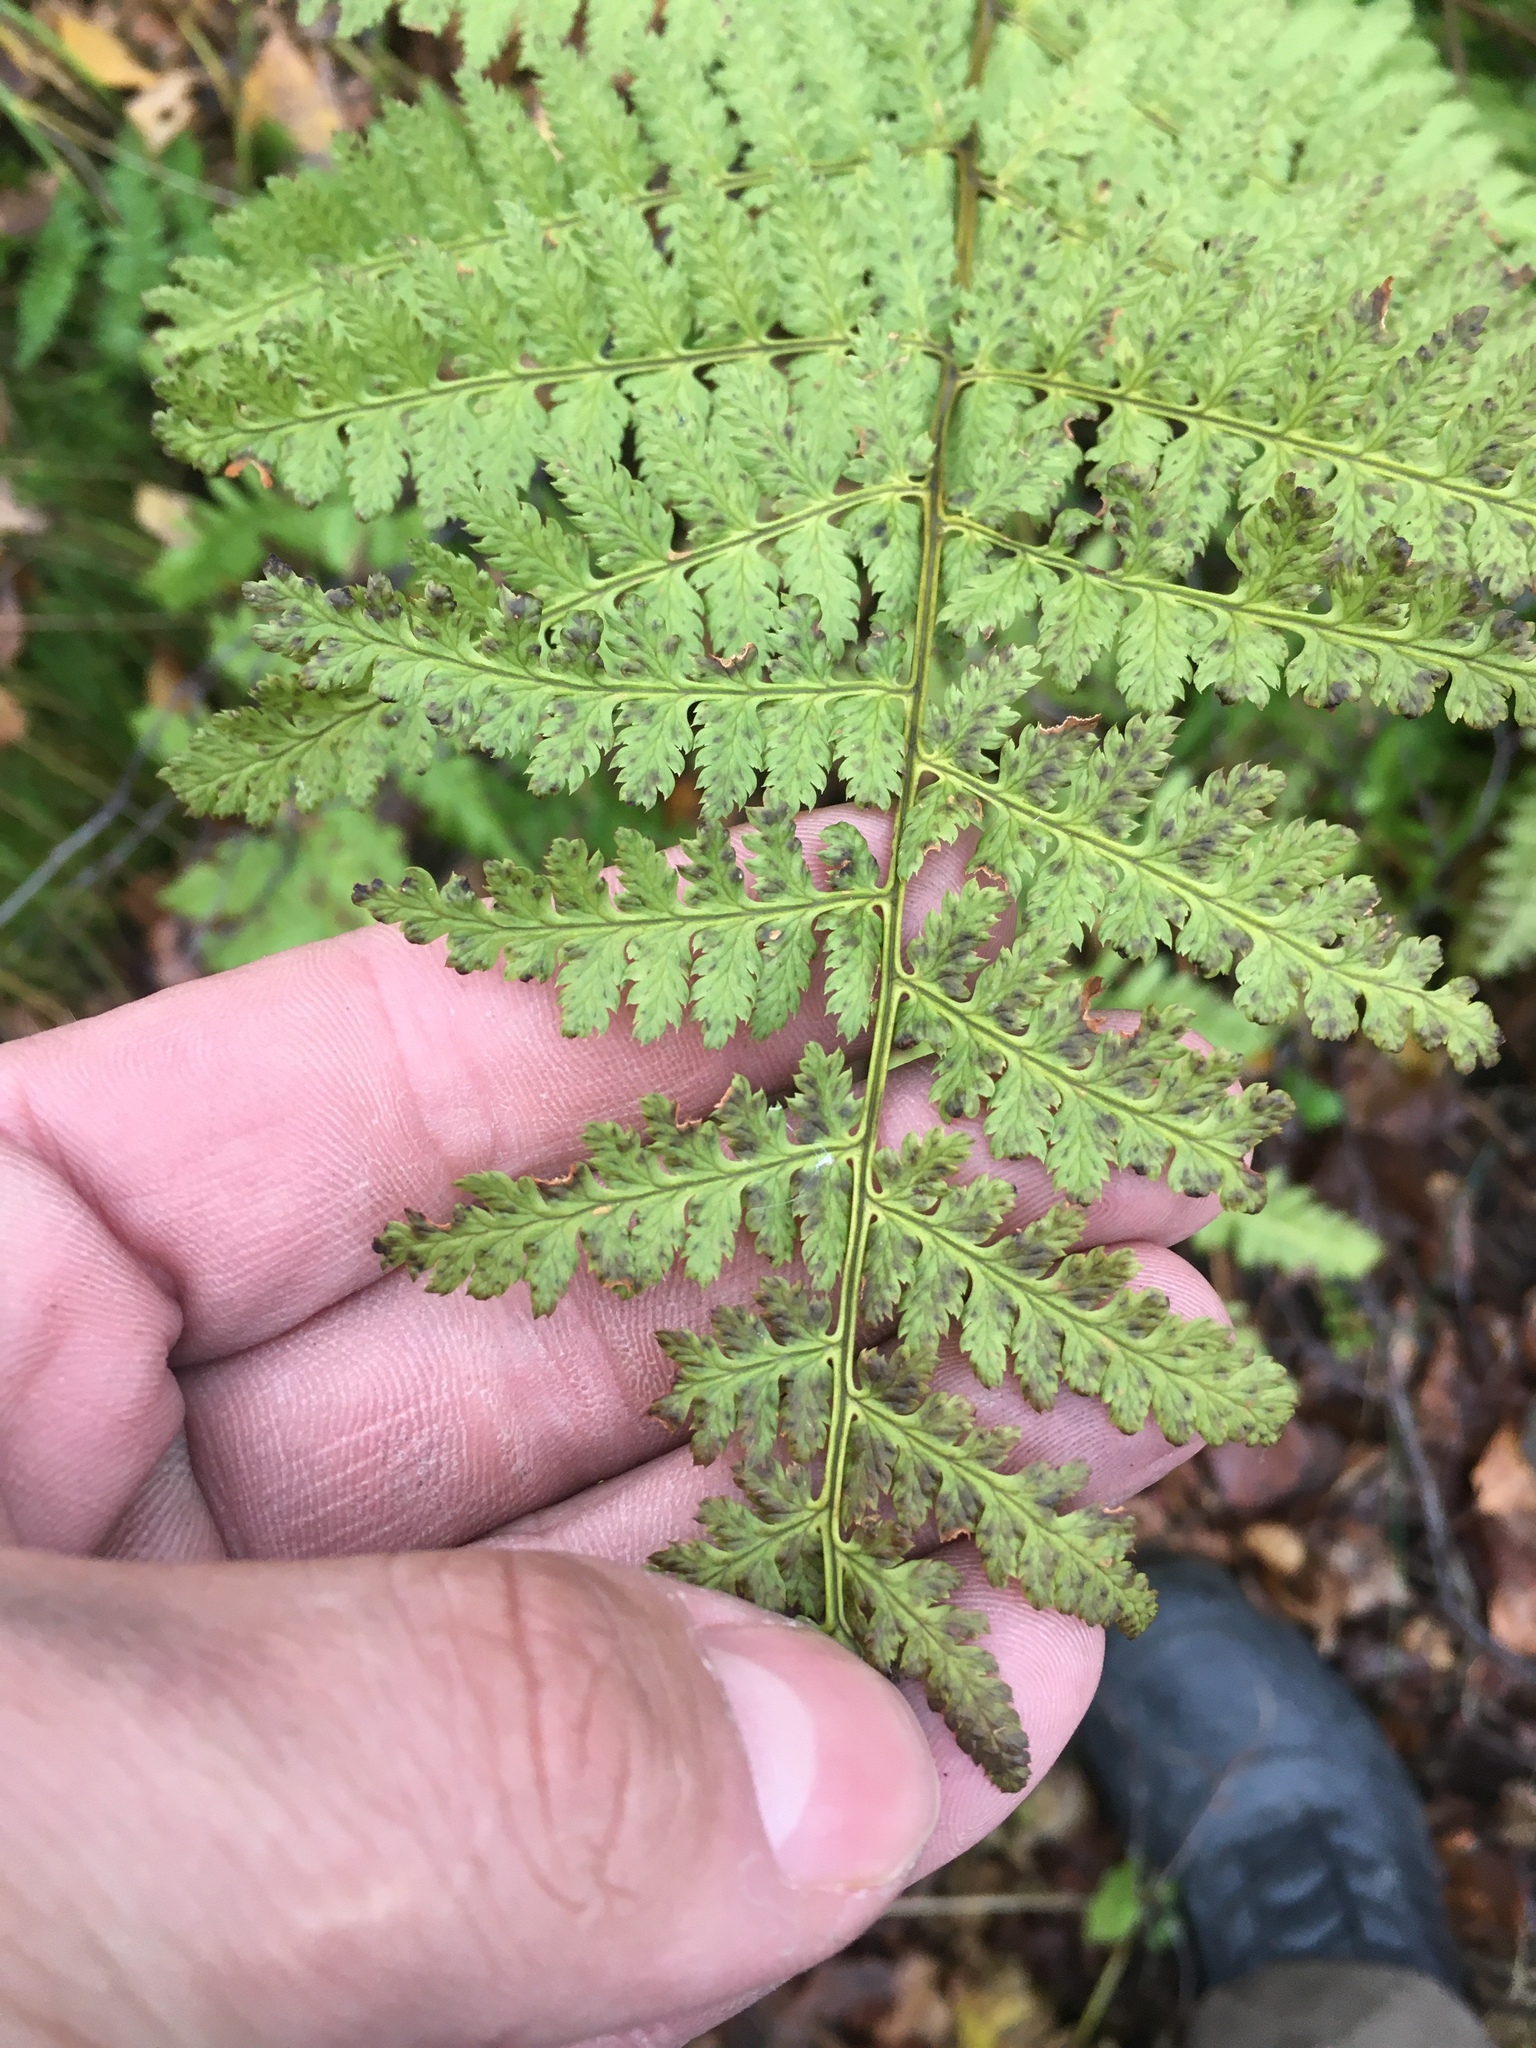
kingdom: Plantae
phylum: Tracheophyta
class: Polypodiopsida
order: Polypodiales
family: Athyriaceae
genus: Athyrium
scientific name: Athyrium filix-femina
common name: Lady fern
